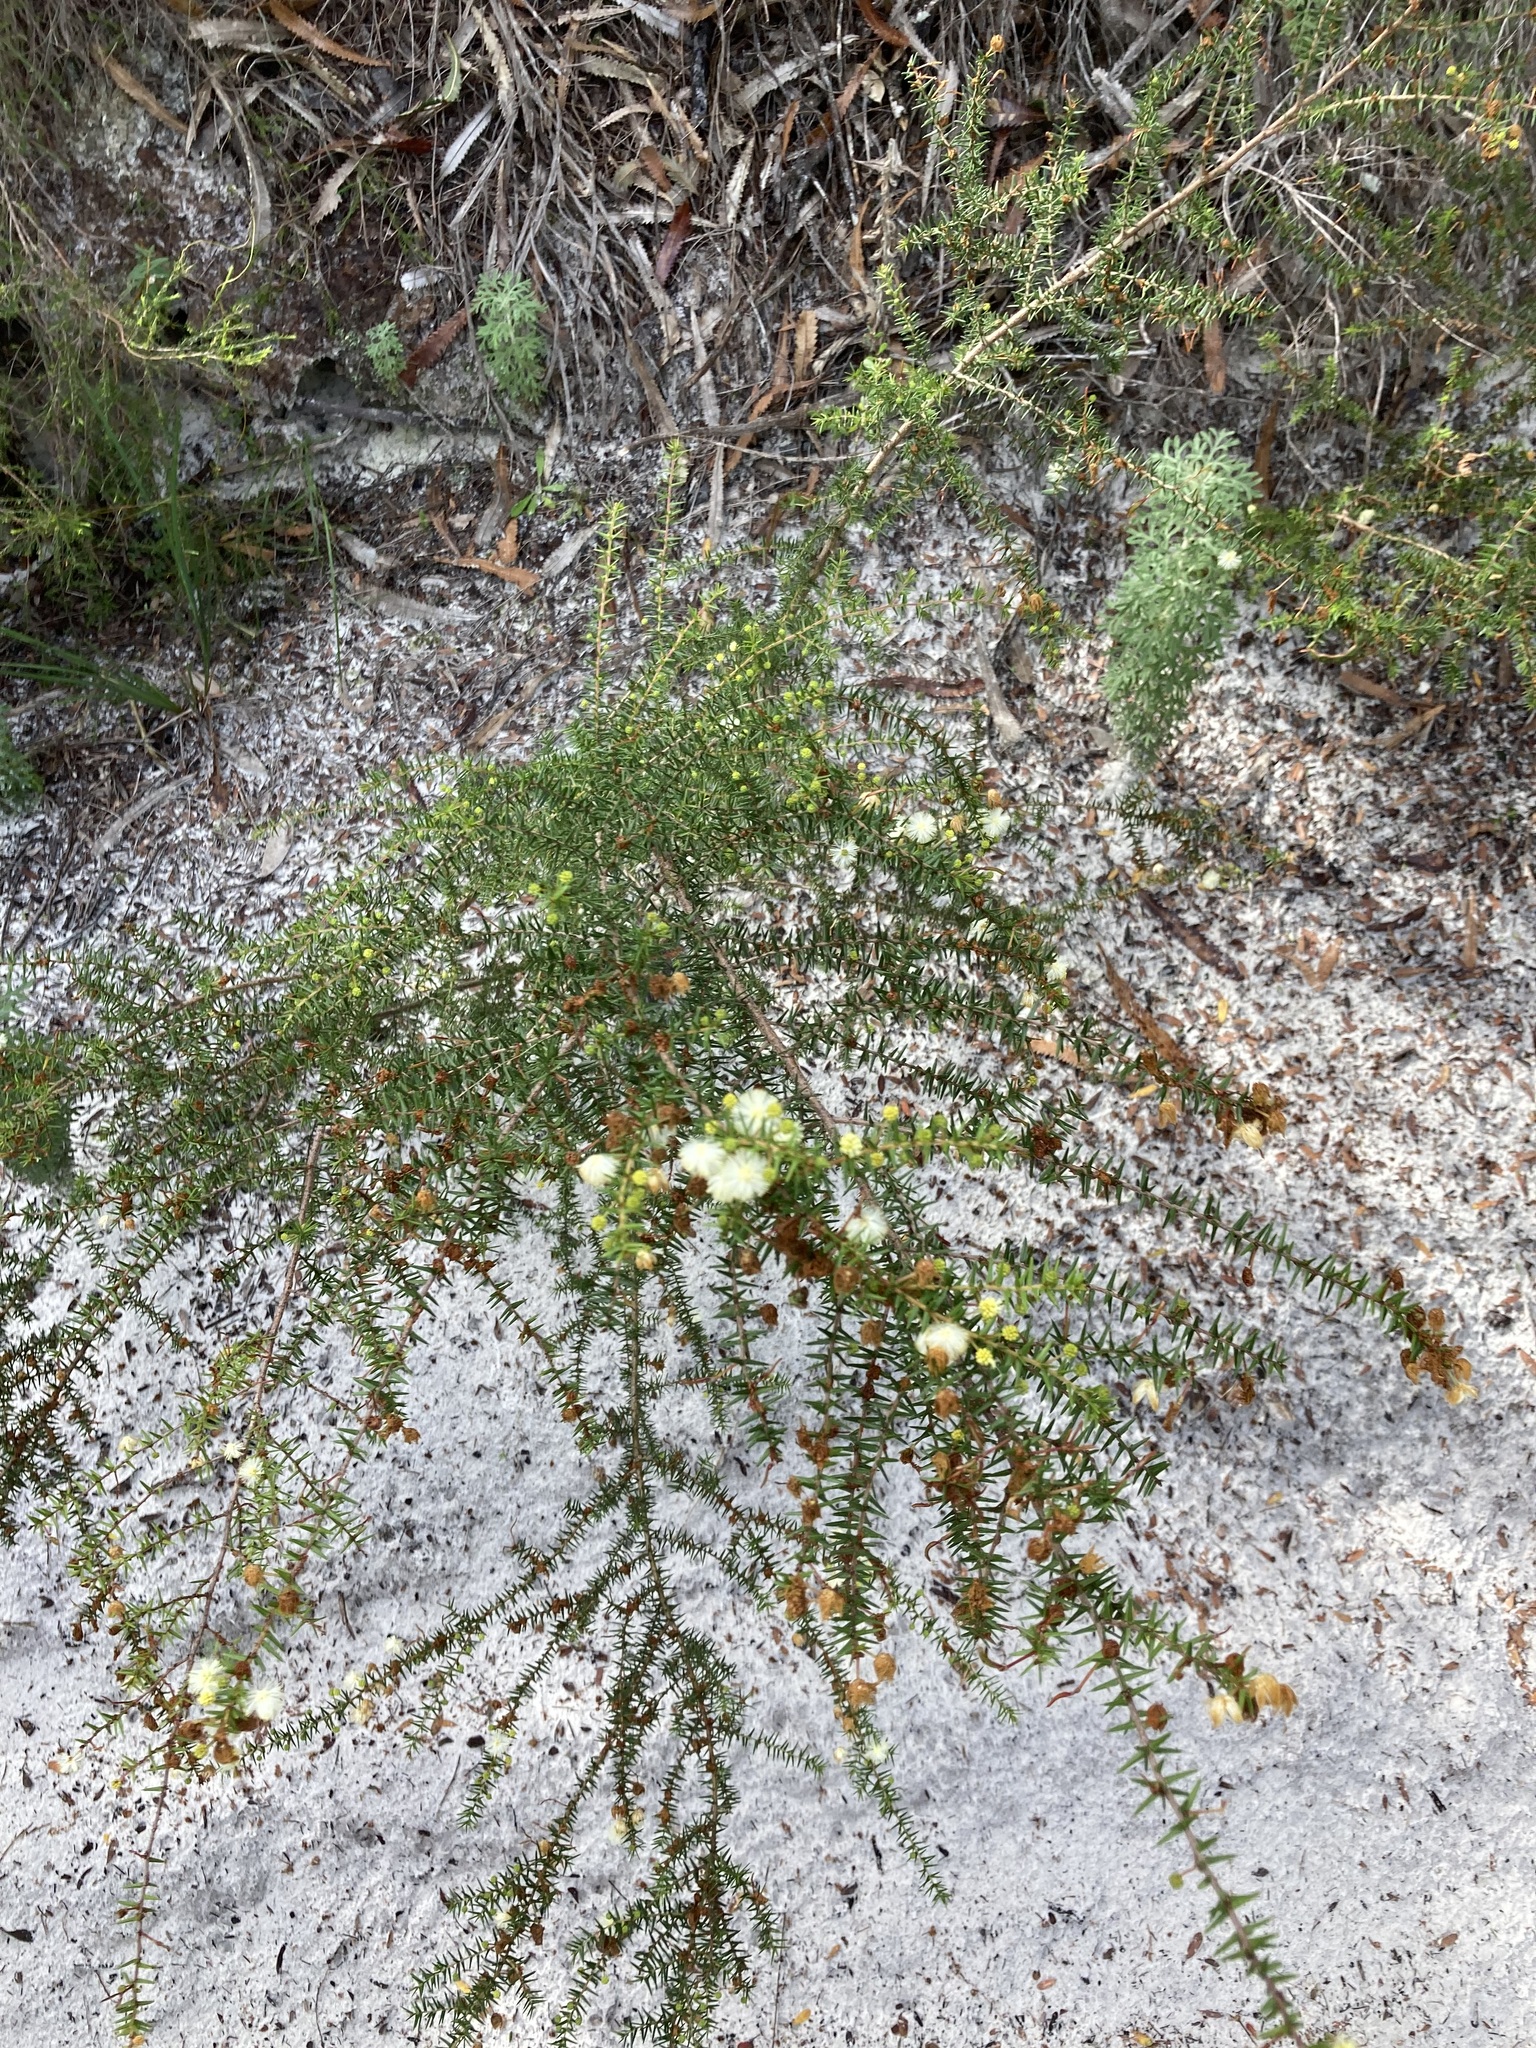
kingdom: Plantae
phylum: Tracheophyta
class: Magnoliopsida
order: Fabales
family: Fabaceae
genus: Acacia
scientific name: Acacia ulicifolia
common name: Juniper wattle
